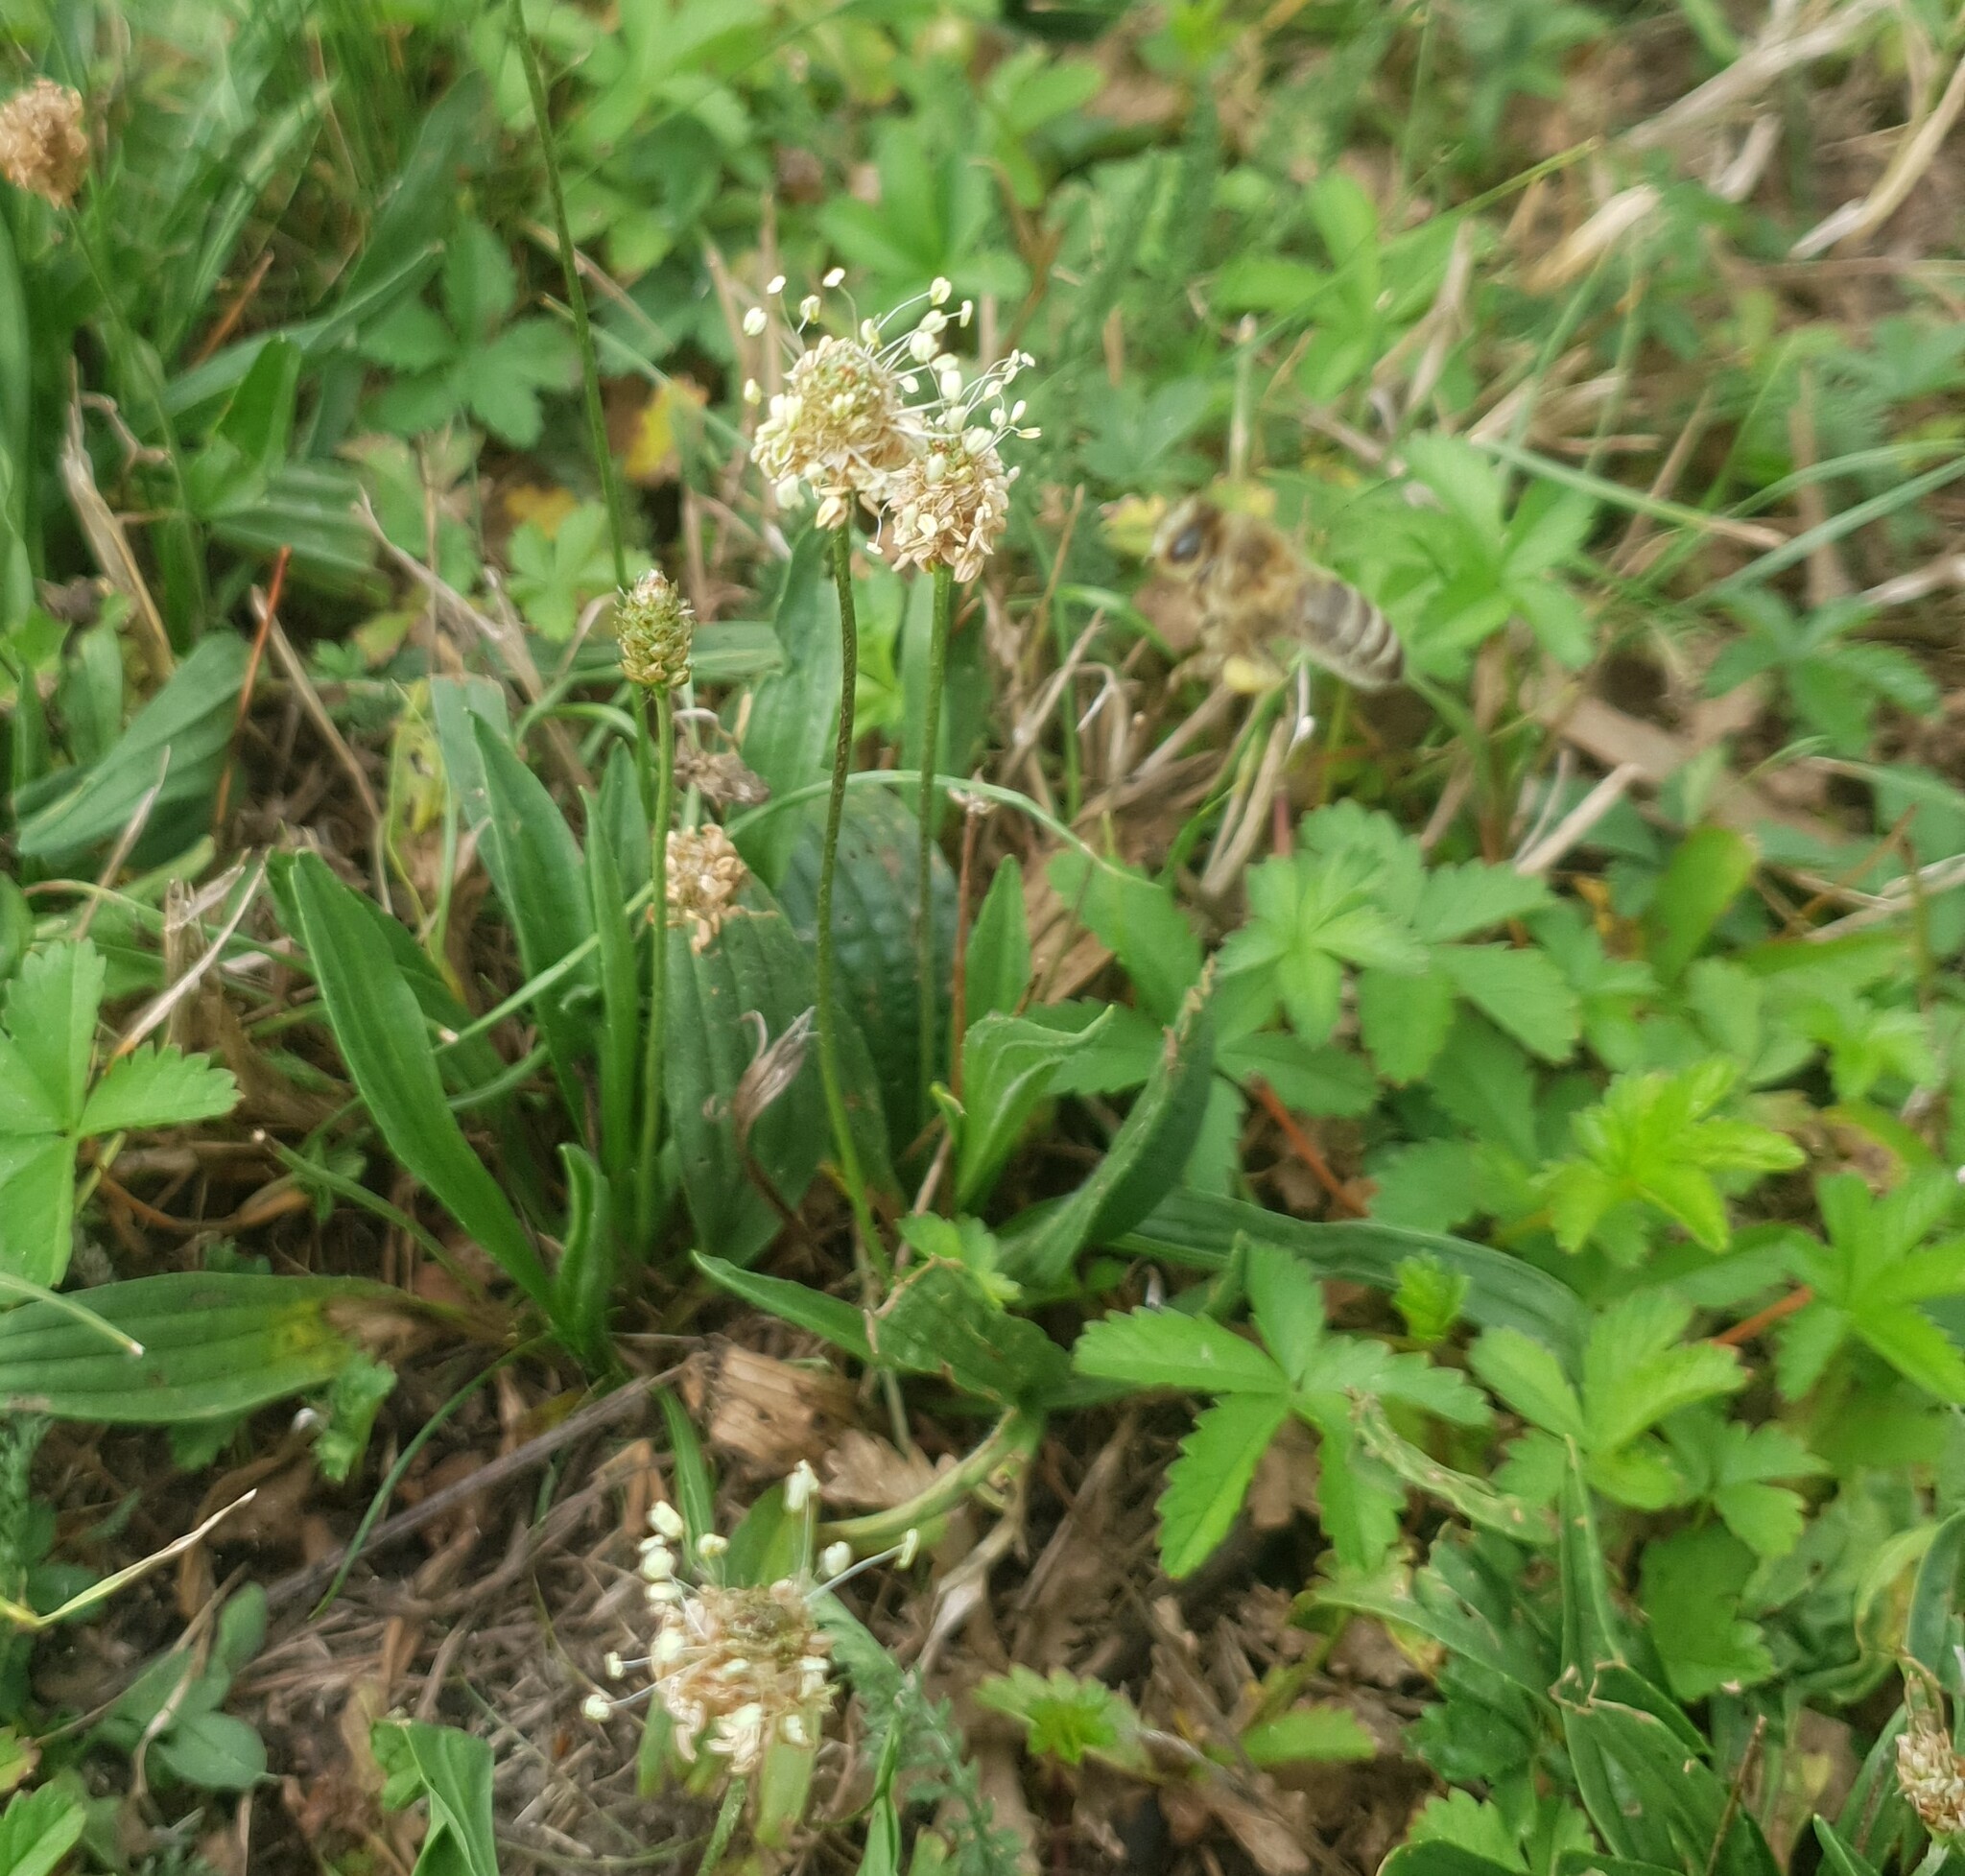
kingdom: Animalia
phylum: Arthropoda
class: Insecta
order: Hymenoptera
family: Apidae
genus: Apis
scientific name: Apis mellifera
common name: Honey bee
